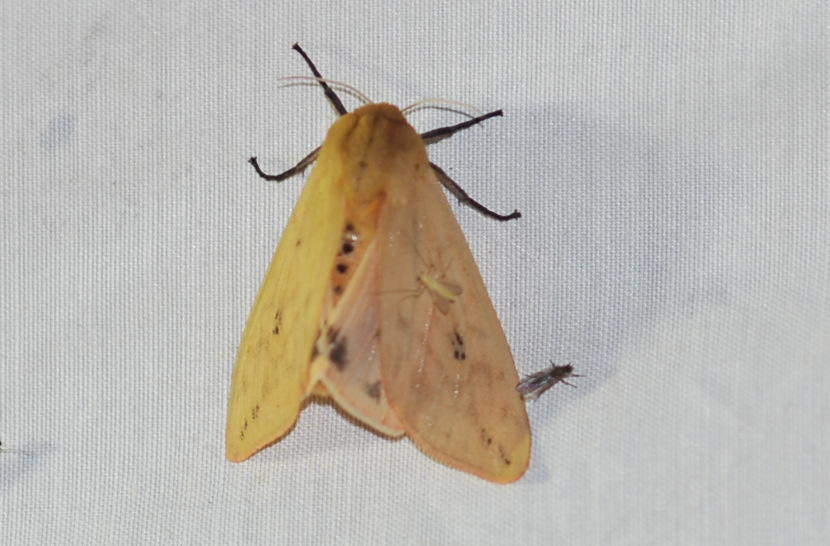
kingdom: Animalia
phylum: Arthropoda
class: Insecta
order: Lepidoptera
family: Erebidae
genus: Pyrrharctia
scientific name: Pyrrharctia isabella
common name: Isabella tiger moth
